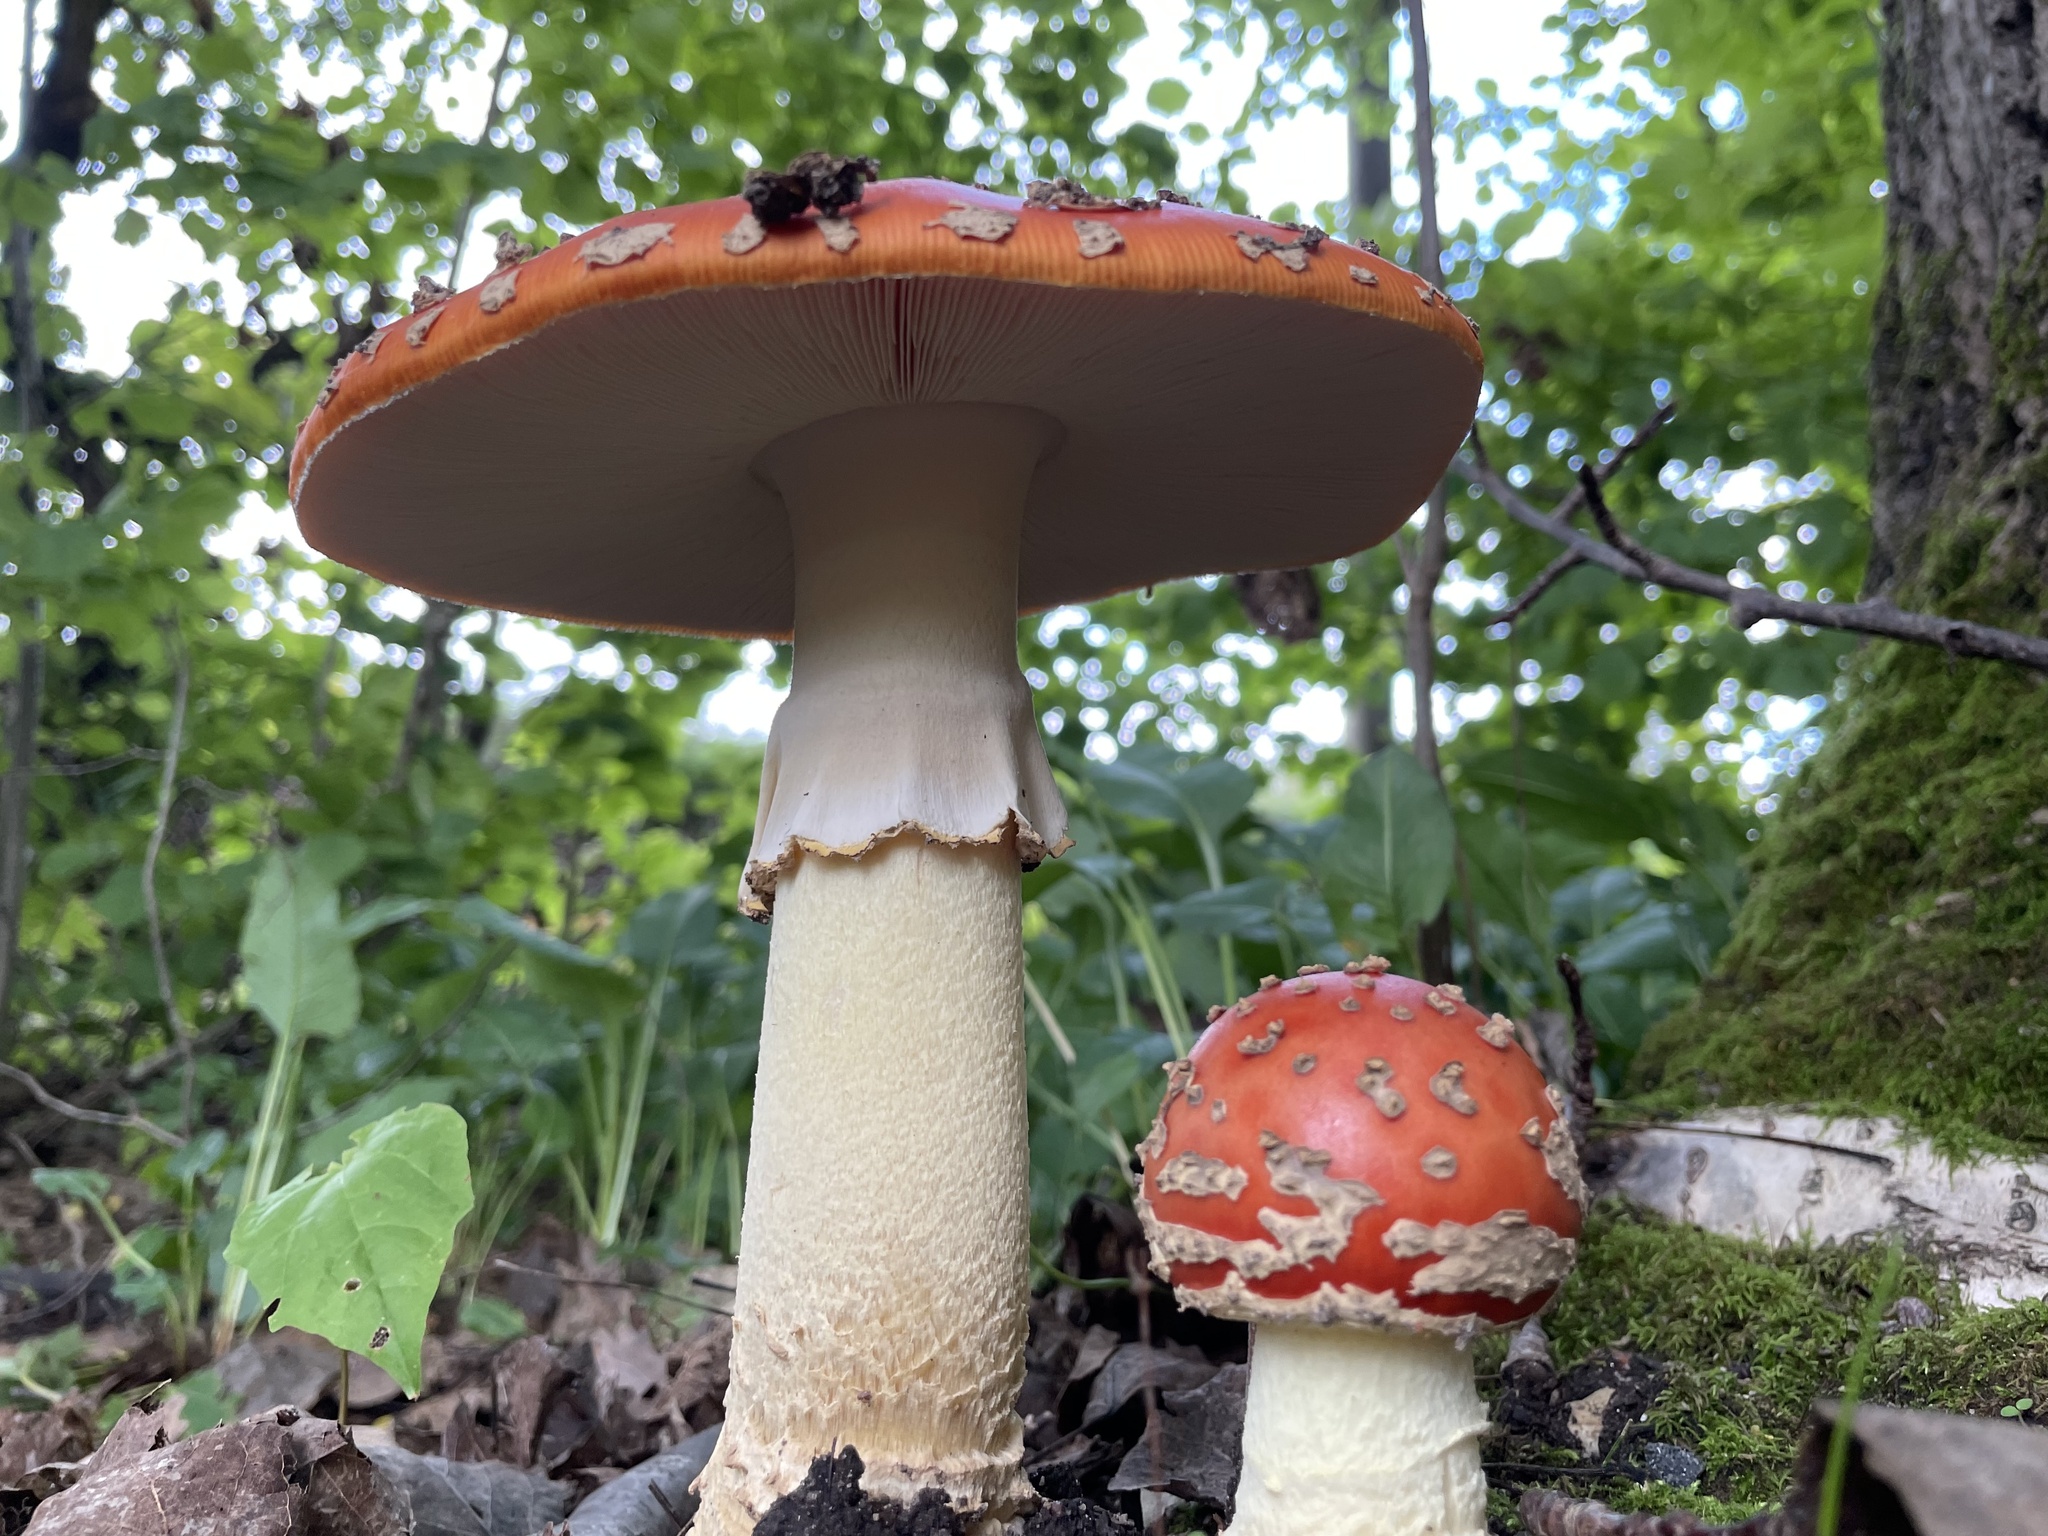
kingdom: Fungi
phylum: Basidiomycota
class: Agaricomycetes
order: Agaricales
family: Amanitaceae
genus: Amanita
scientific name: Amanita muscaria
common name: Fly agaric
